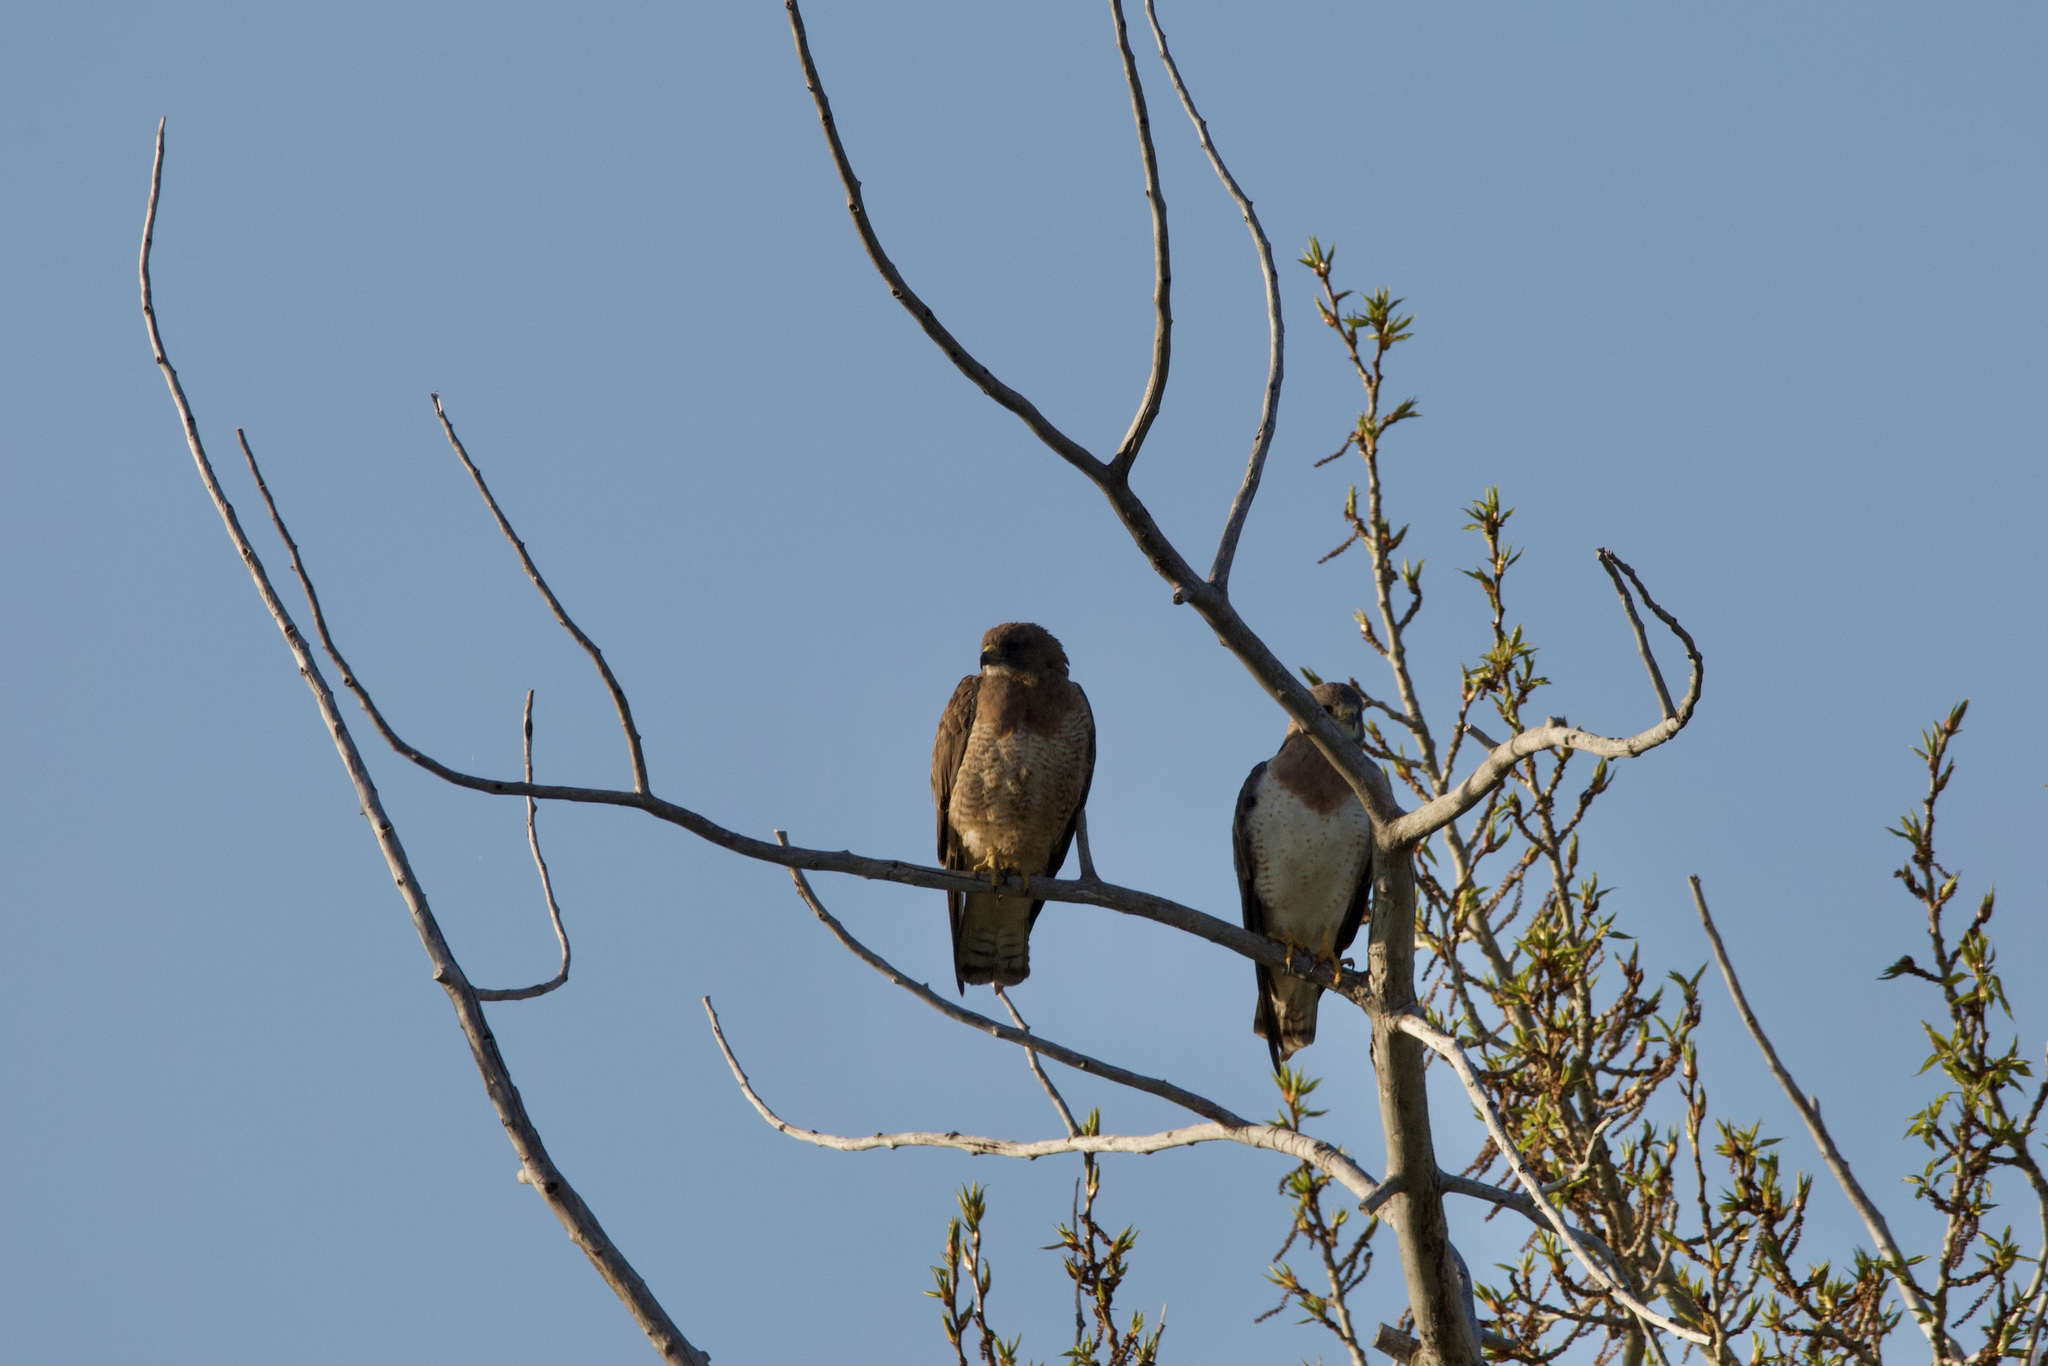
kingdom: Animalia
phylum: Chordata
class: Aves
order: Accipitriformes
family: Accipitridae
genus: Buteo
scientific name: Buteo swainsoni
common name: Swainson's hawk
